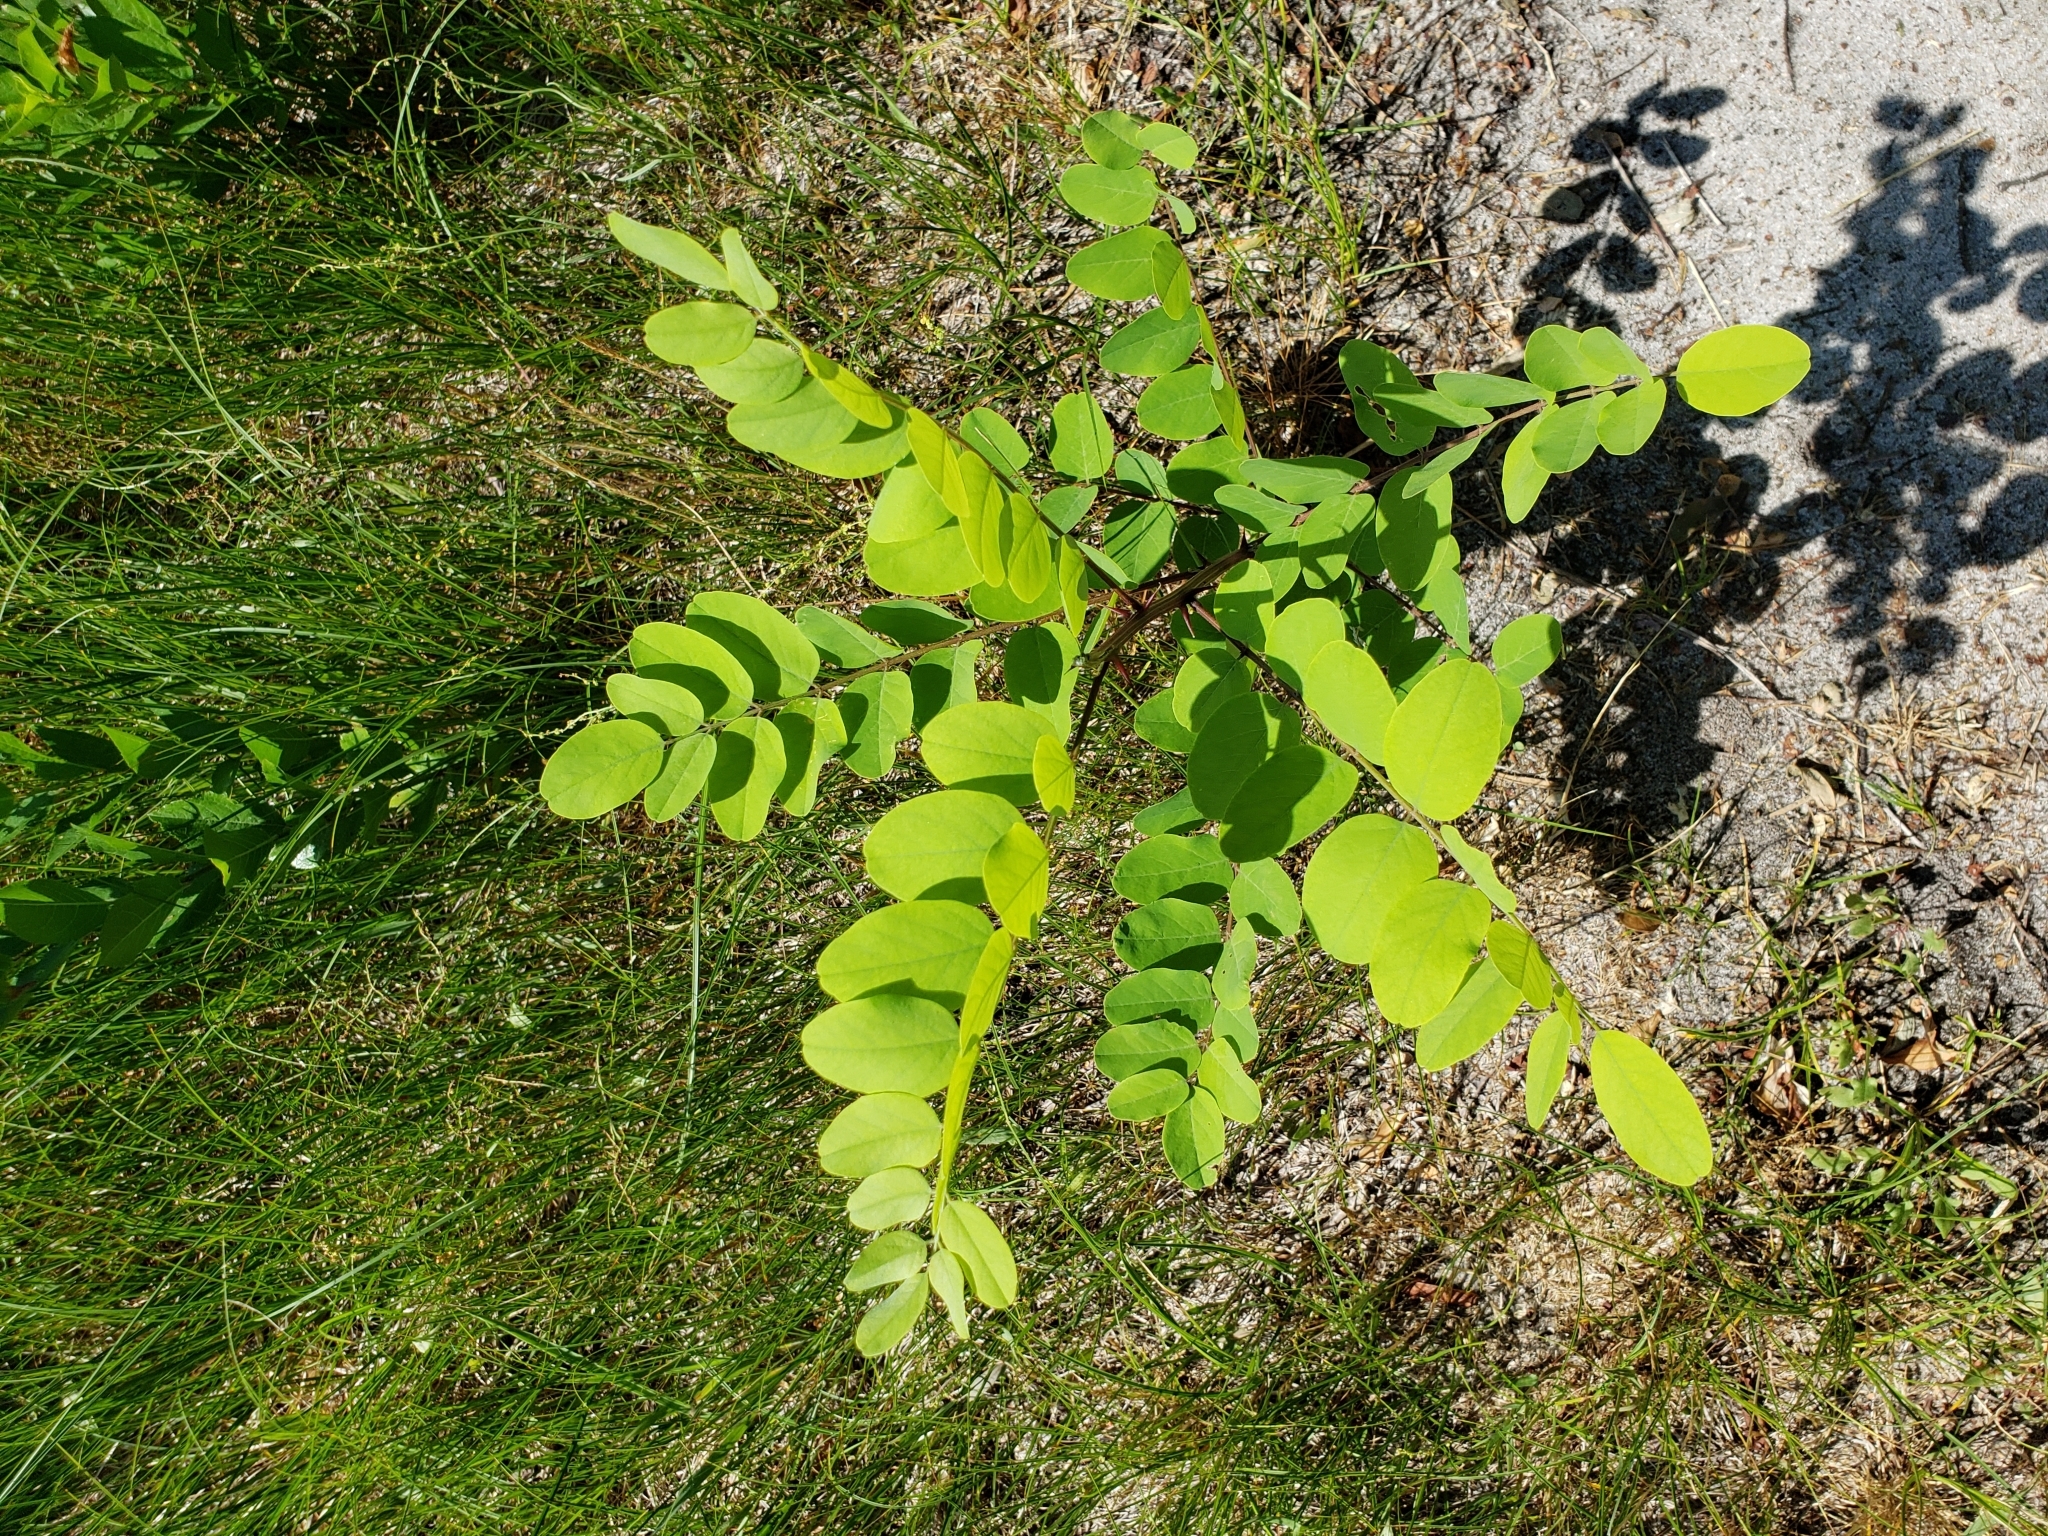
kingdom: Plantae
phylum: Tracheophyta
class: Magnoliopsida
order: Fabales
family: Fabaceae
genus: Robinia
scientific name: Robinia pseudoacacia
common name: Black locust
